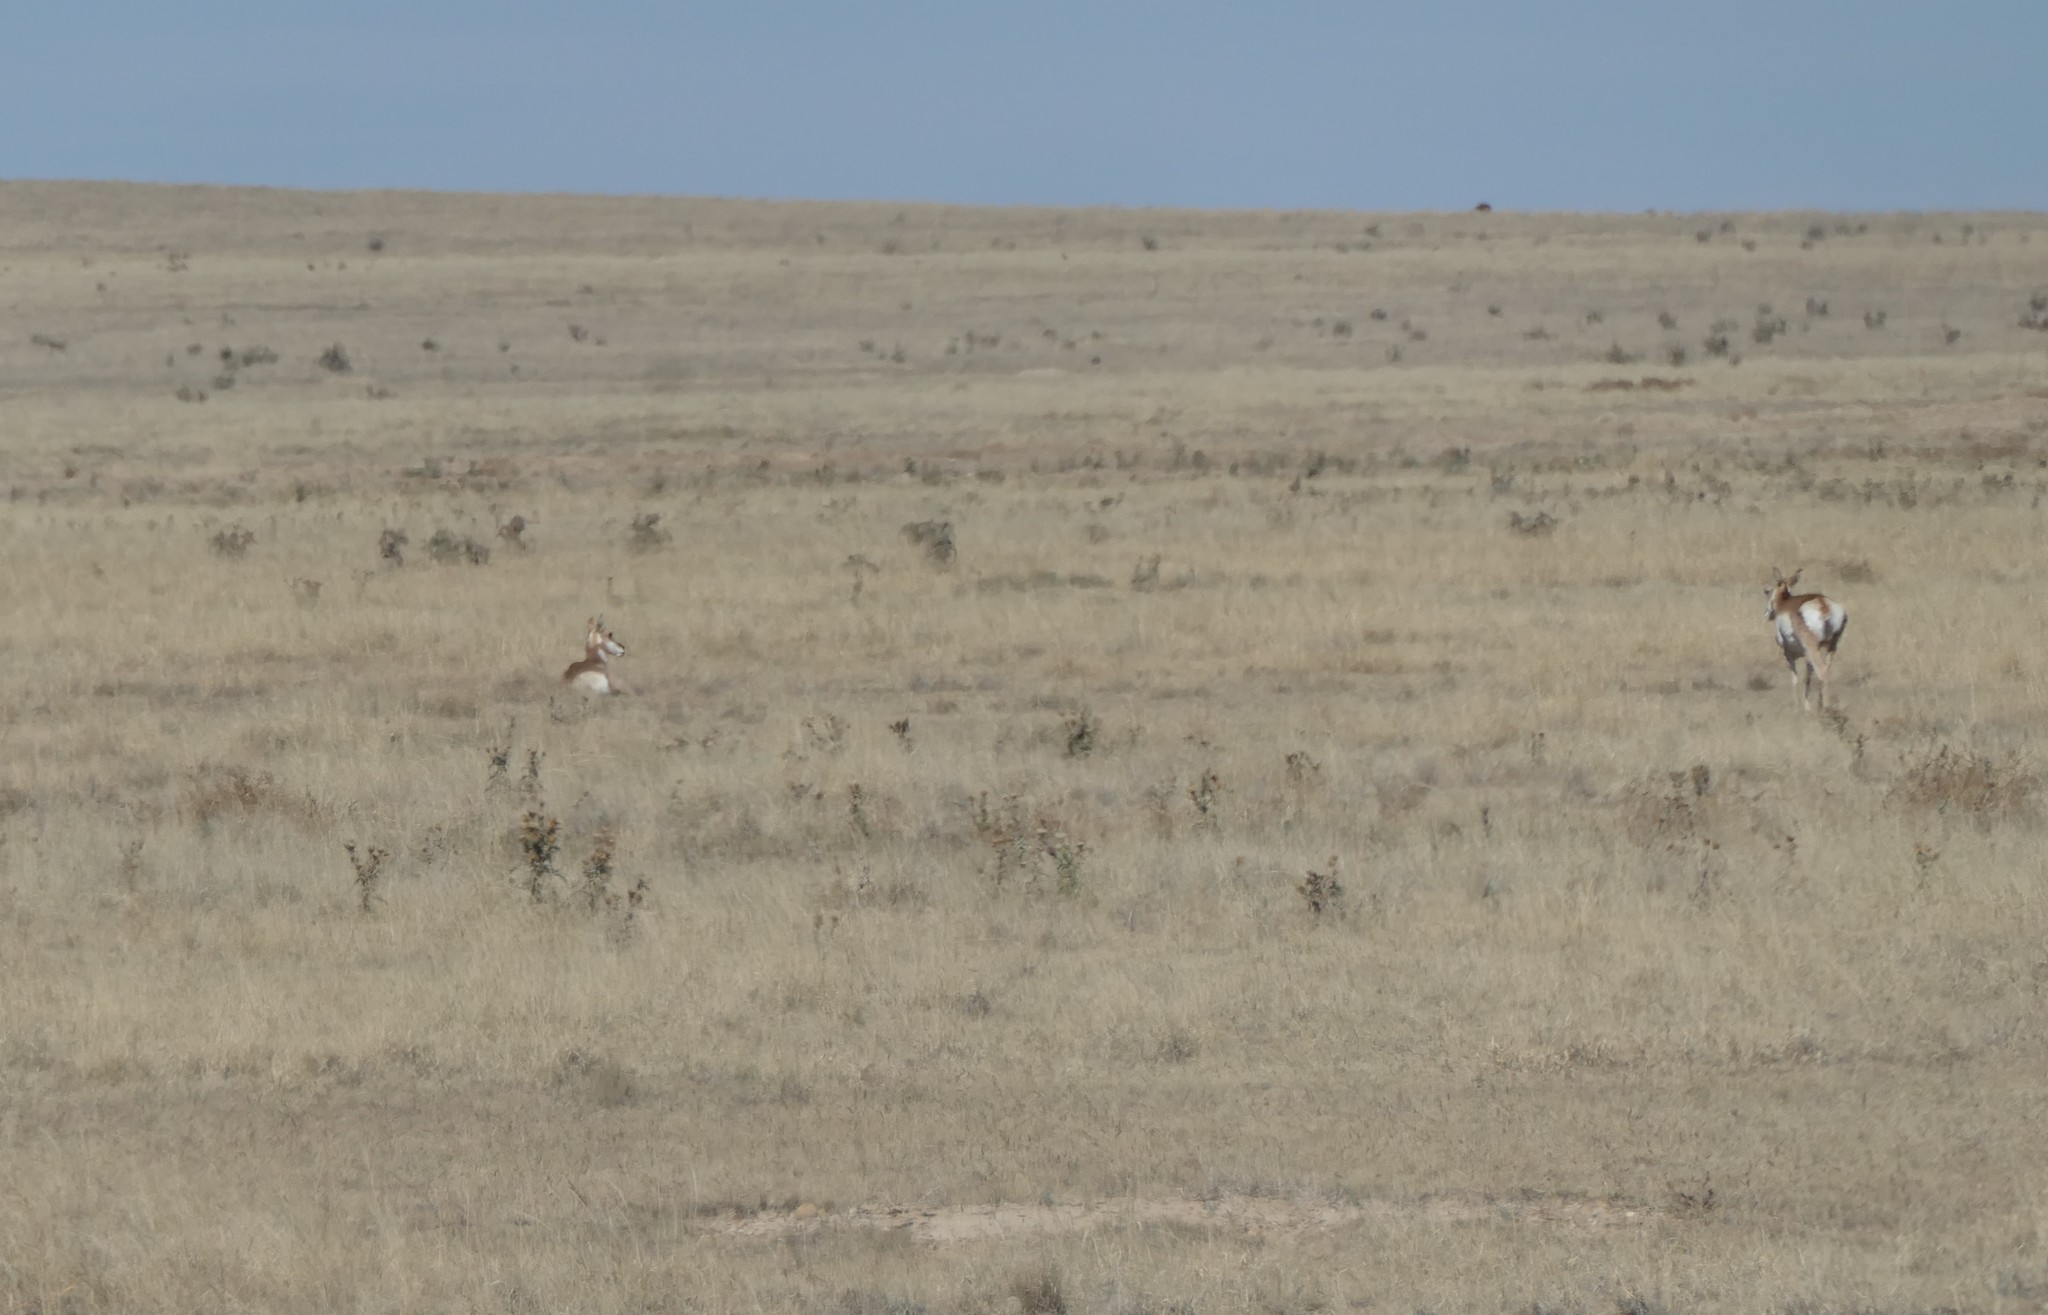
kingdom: Animalia
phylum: Chordata
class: Mammalia
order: Artiodactyla
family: Antilocapridae
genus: Antilocapra
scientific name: Antilocapra americana
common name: Pronghorn
